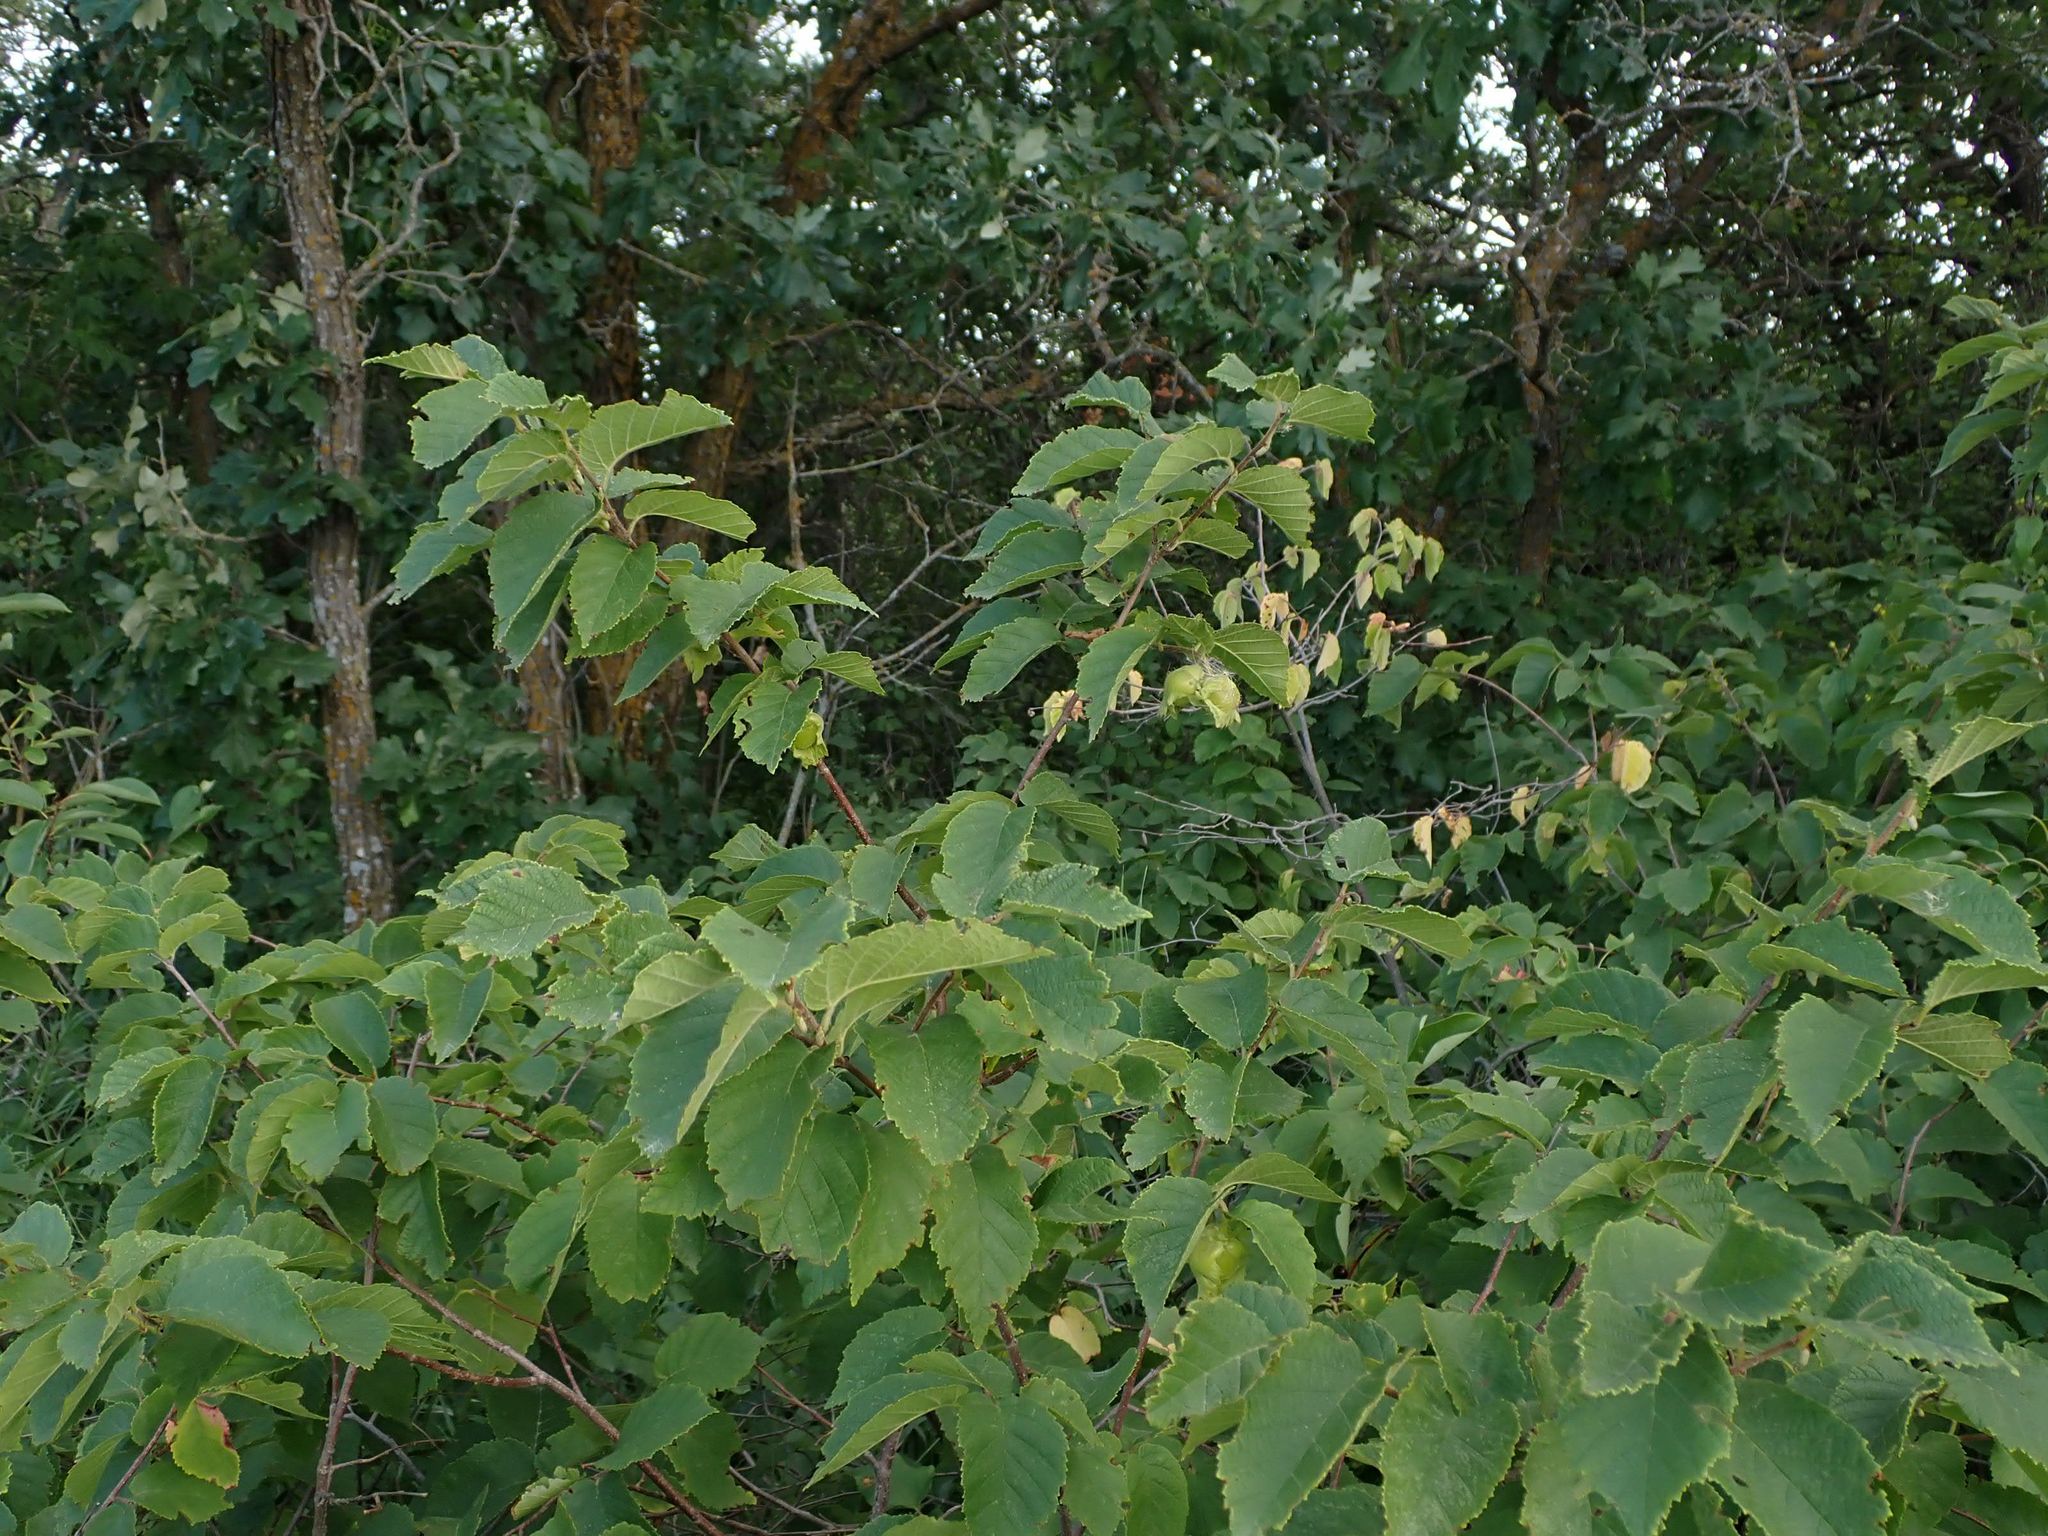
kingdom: Plantae
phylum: Tracheophyta
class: Magnoliopsida
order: Fagales
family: Betulaceae
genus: Corylus
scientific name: Corylus americana
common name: American hazel
